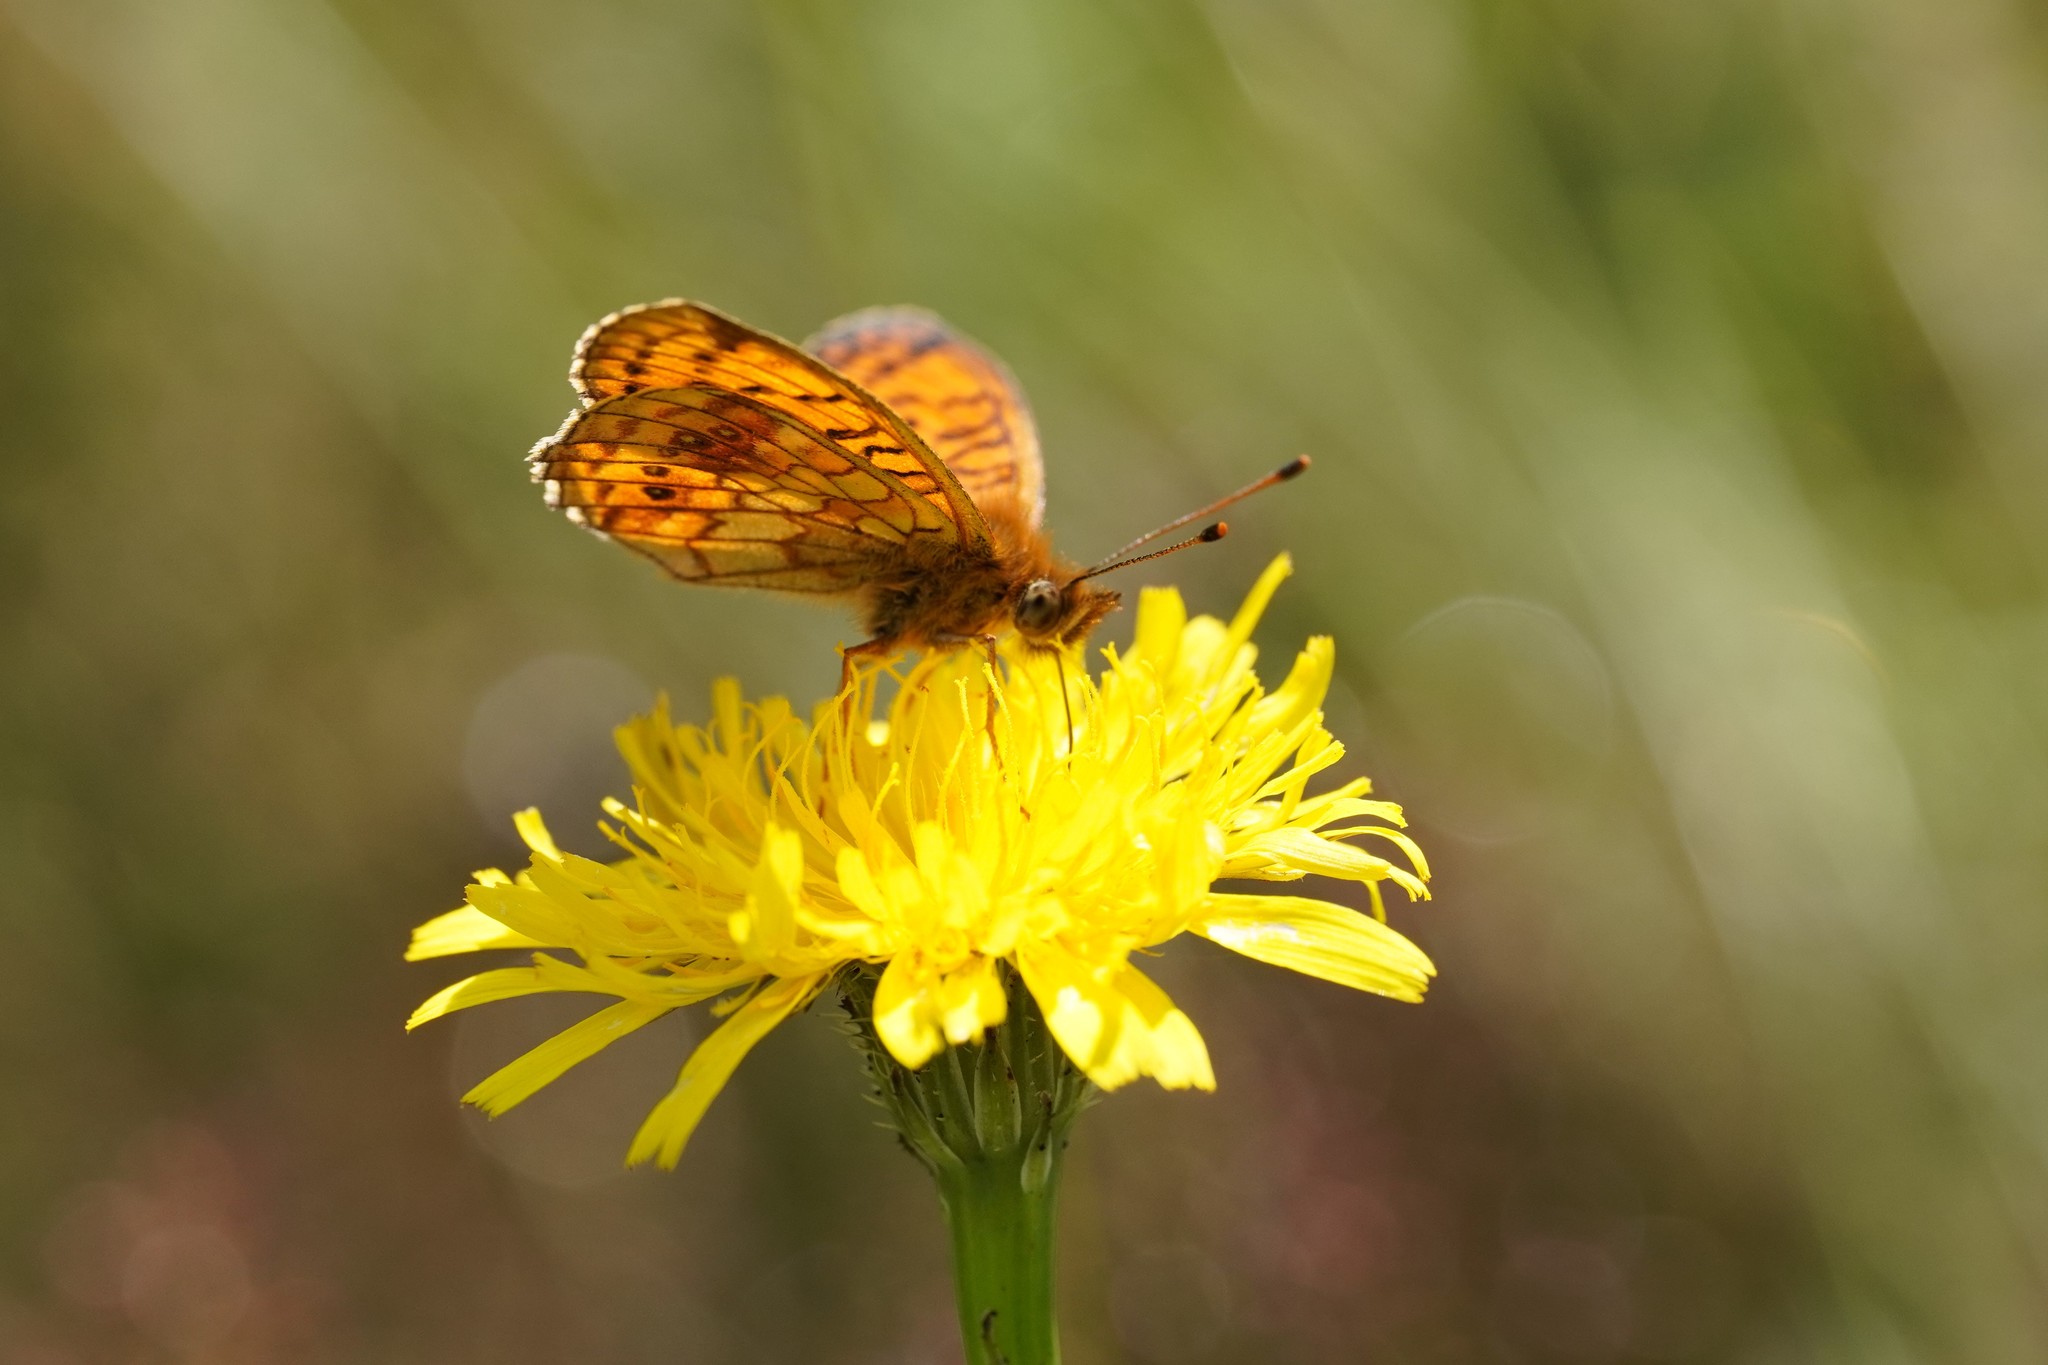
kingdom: Animalia
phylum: Arthropoda
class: Insecta
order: Lepidoptera
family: Nymphalidae
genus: Brenthis
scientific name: Brenthis ino
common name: Lesser marbled fritillary
